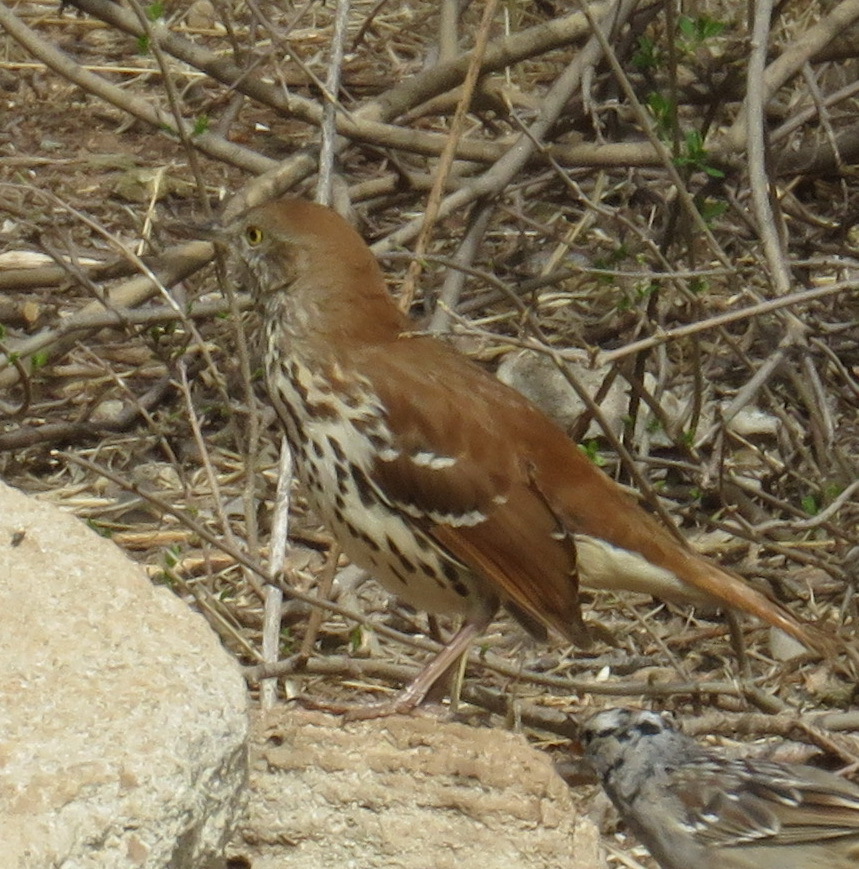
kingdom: Animalia
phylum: Chordata
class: Aves
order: Passeriformes
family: Mimidae
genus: Toxostoma
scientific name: Toxostoma rufum
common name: Brown thrasher
